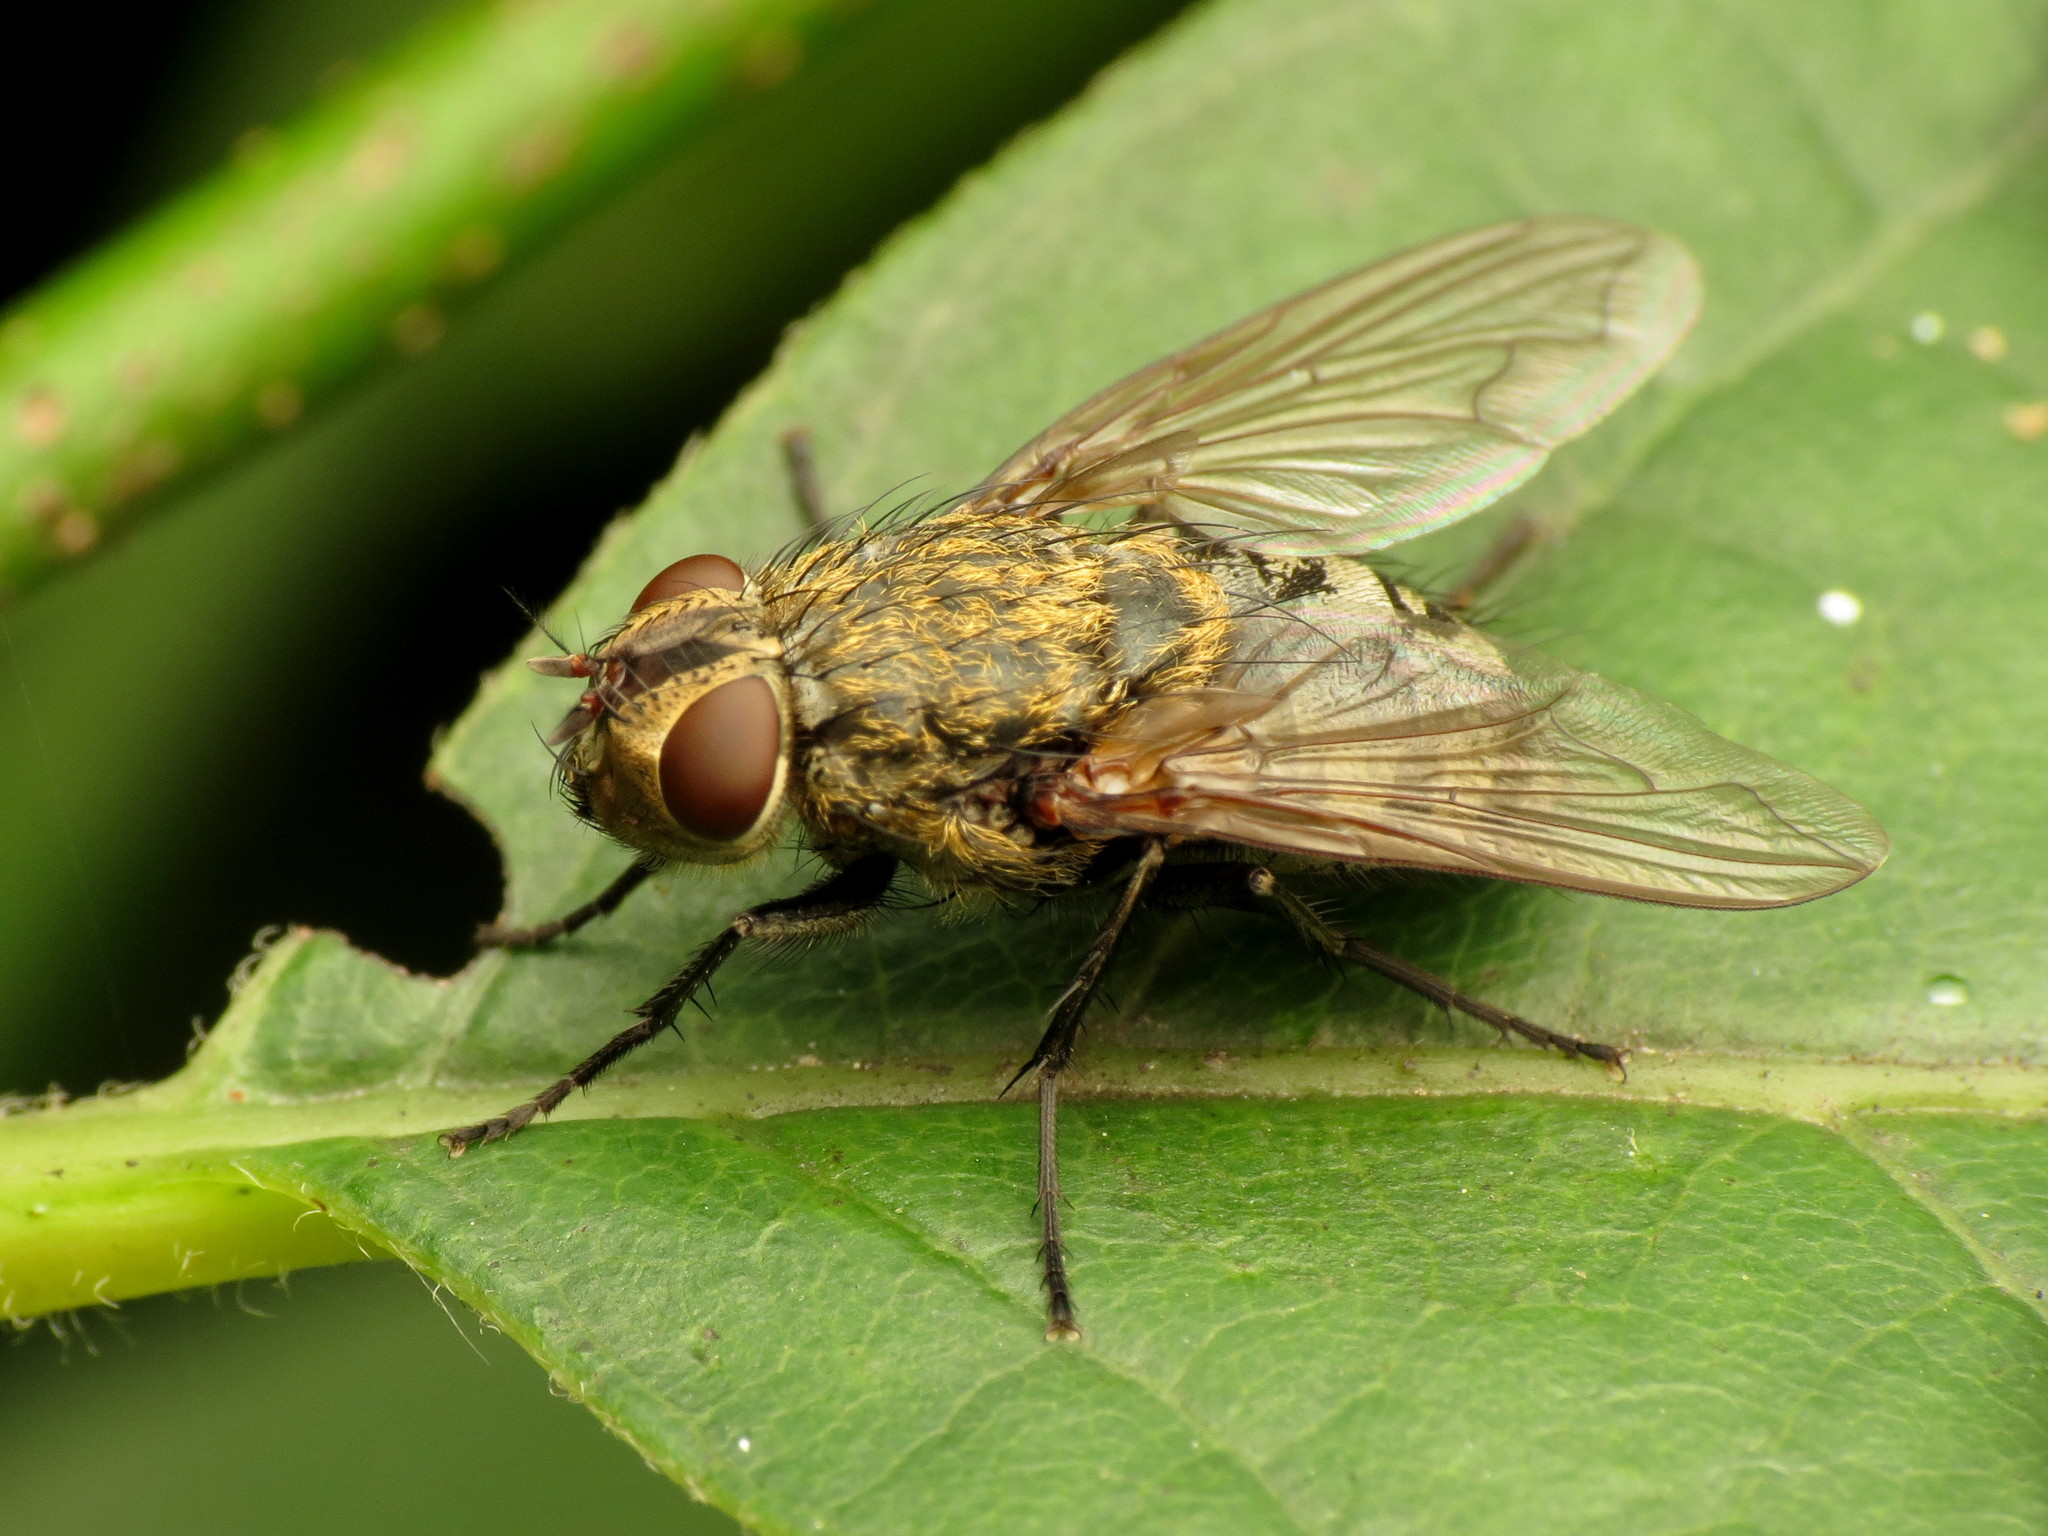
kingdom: Animalia
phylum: Arthropoda
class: Insecta
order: Diptera
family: Polleniidae
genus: Pollenia
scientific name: Pollenia
